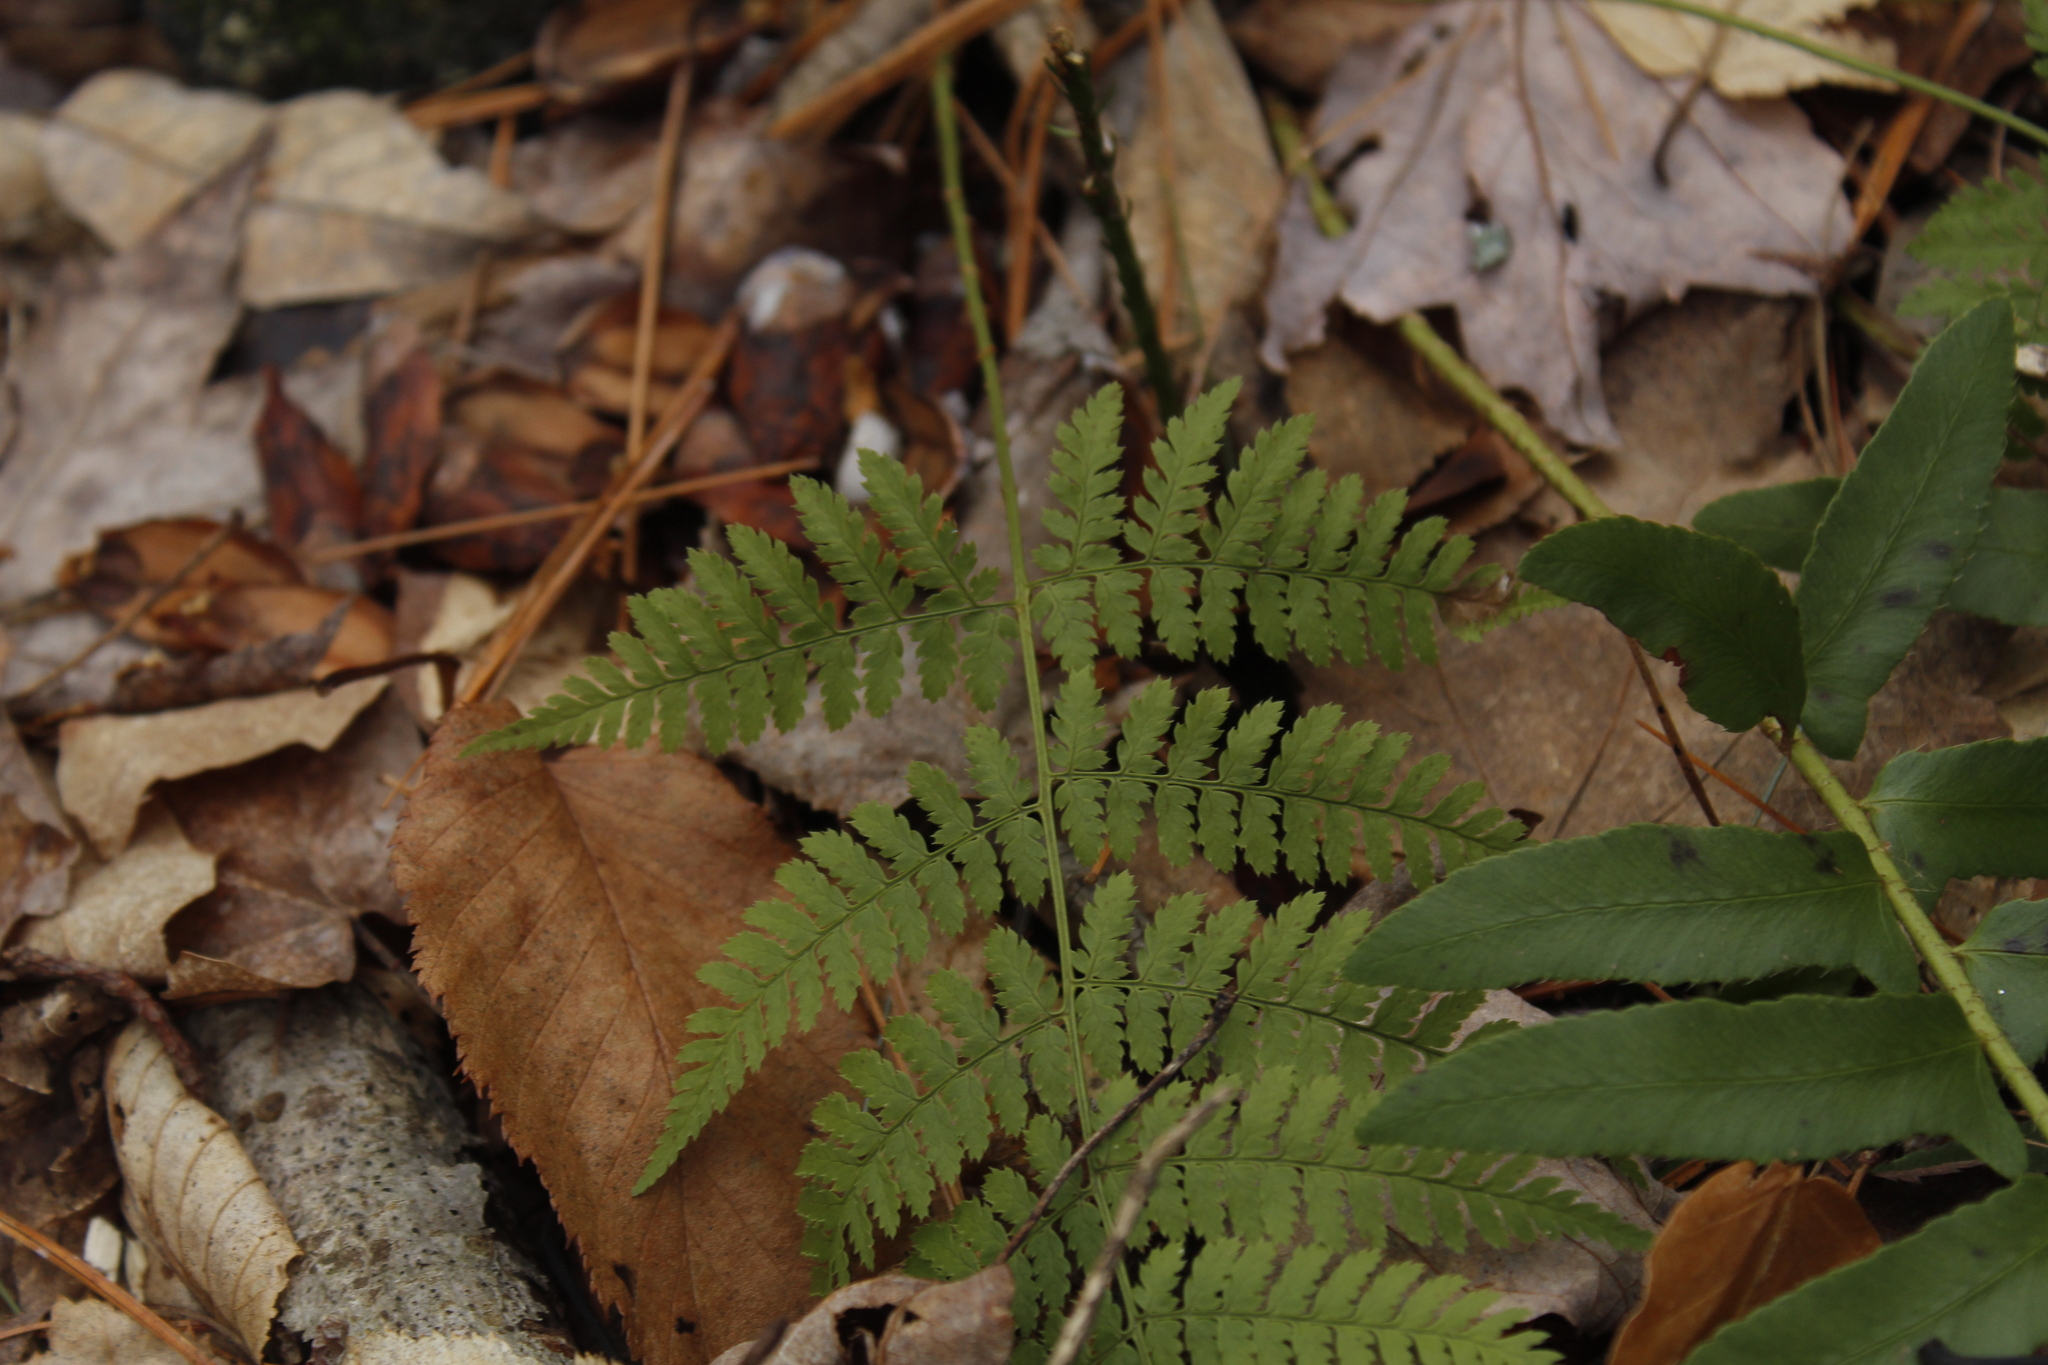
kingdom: Plantae
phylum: Tracheophyta
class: Polypodiopsida
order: Polypodiales
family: Dryopteridaceae
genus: Dryopteris
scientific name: Dryopteris intermedia
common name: Evergreen wood fern
